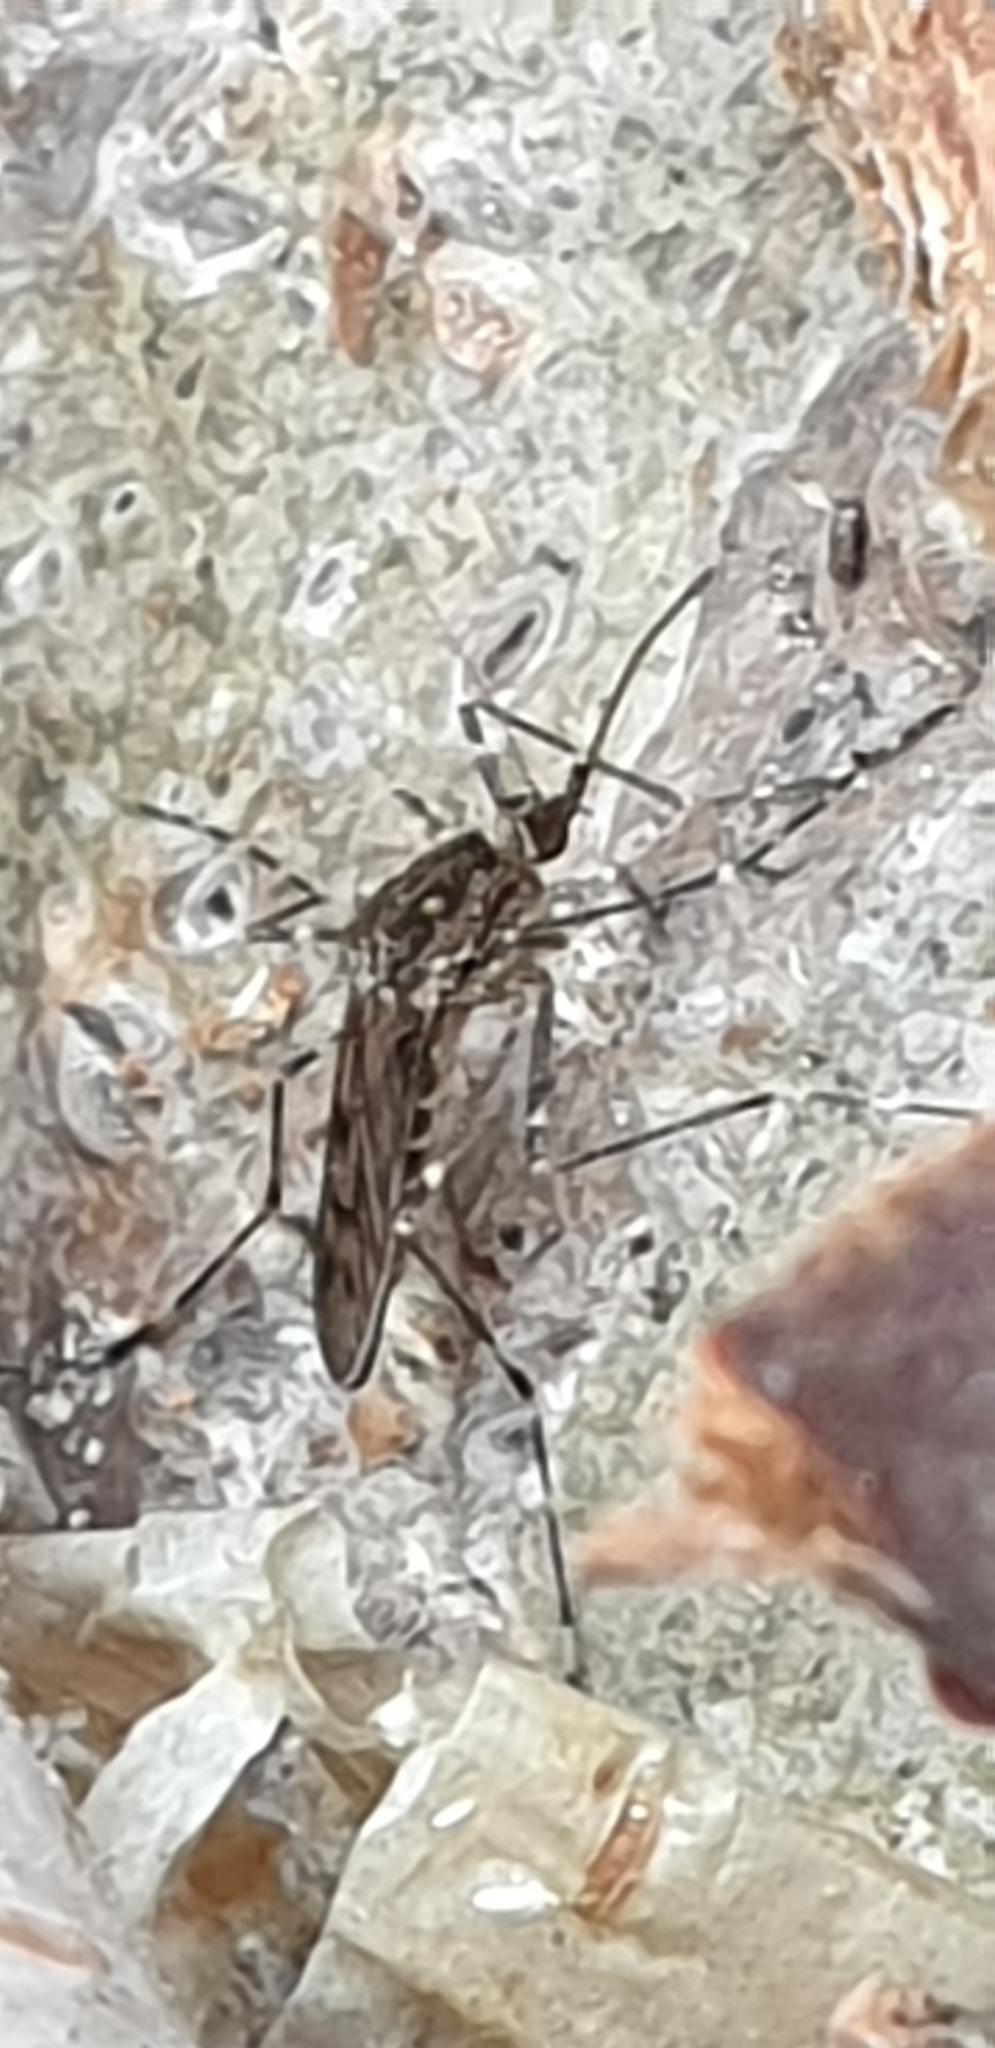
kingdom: Animalia
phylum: Arthropoda
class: Insecta
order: Diptera
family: Culicidae
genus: Culiseta
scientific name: Culiseta annulata
